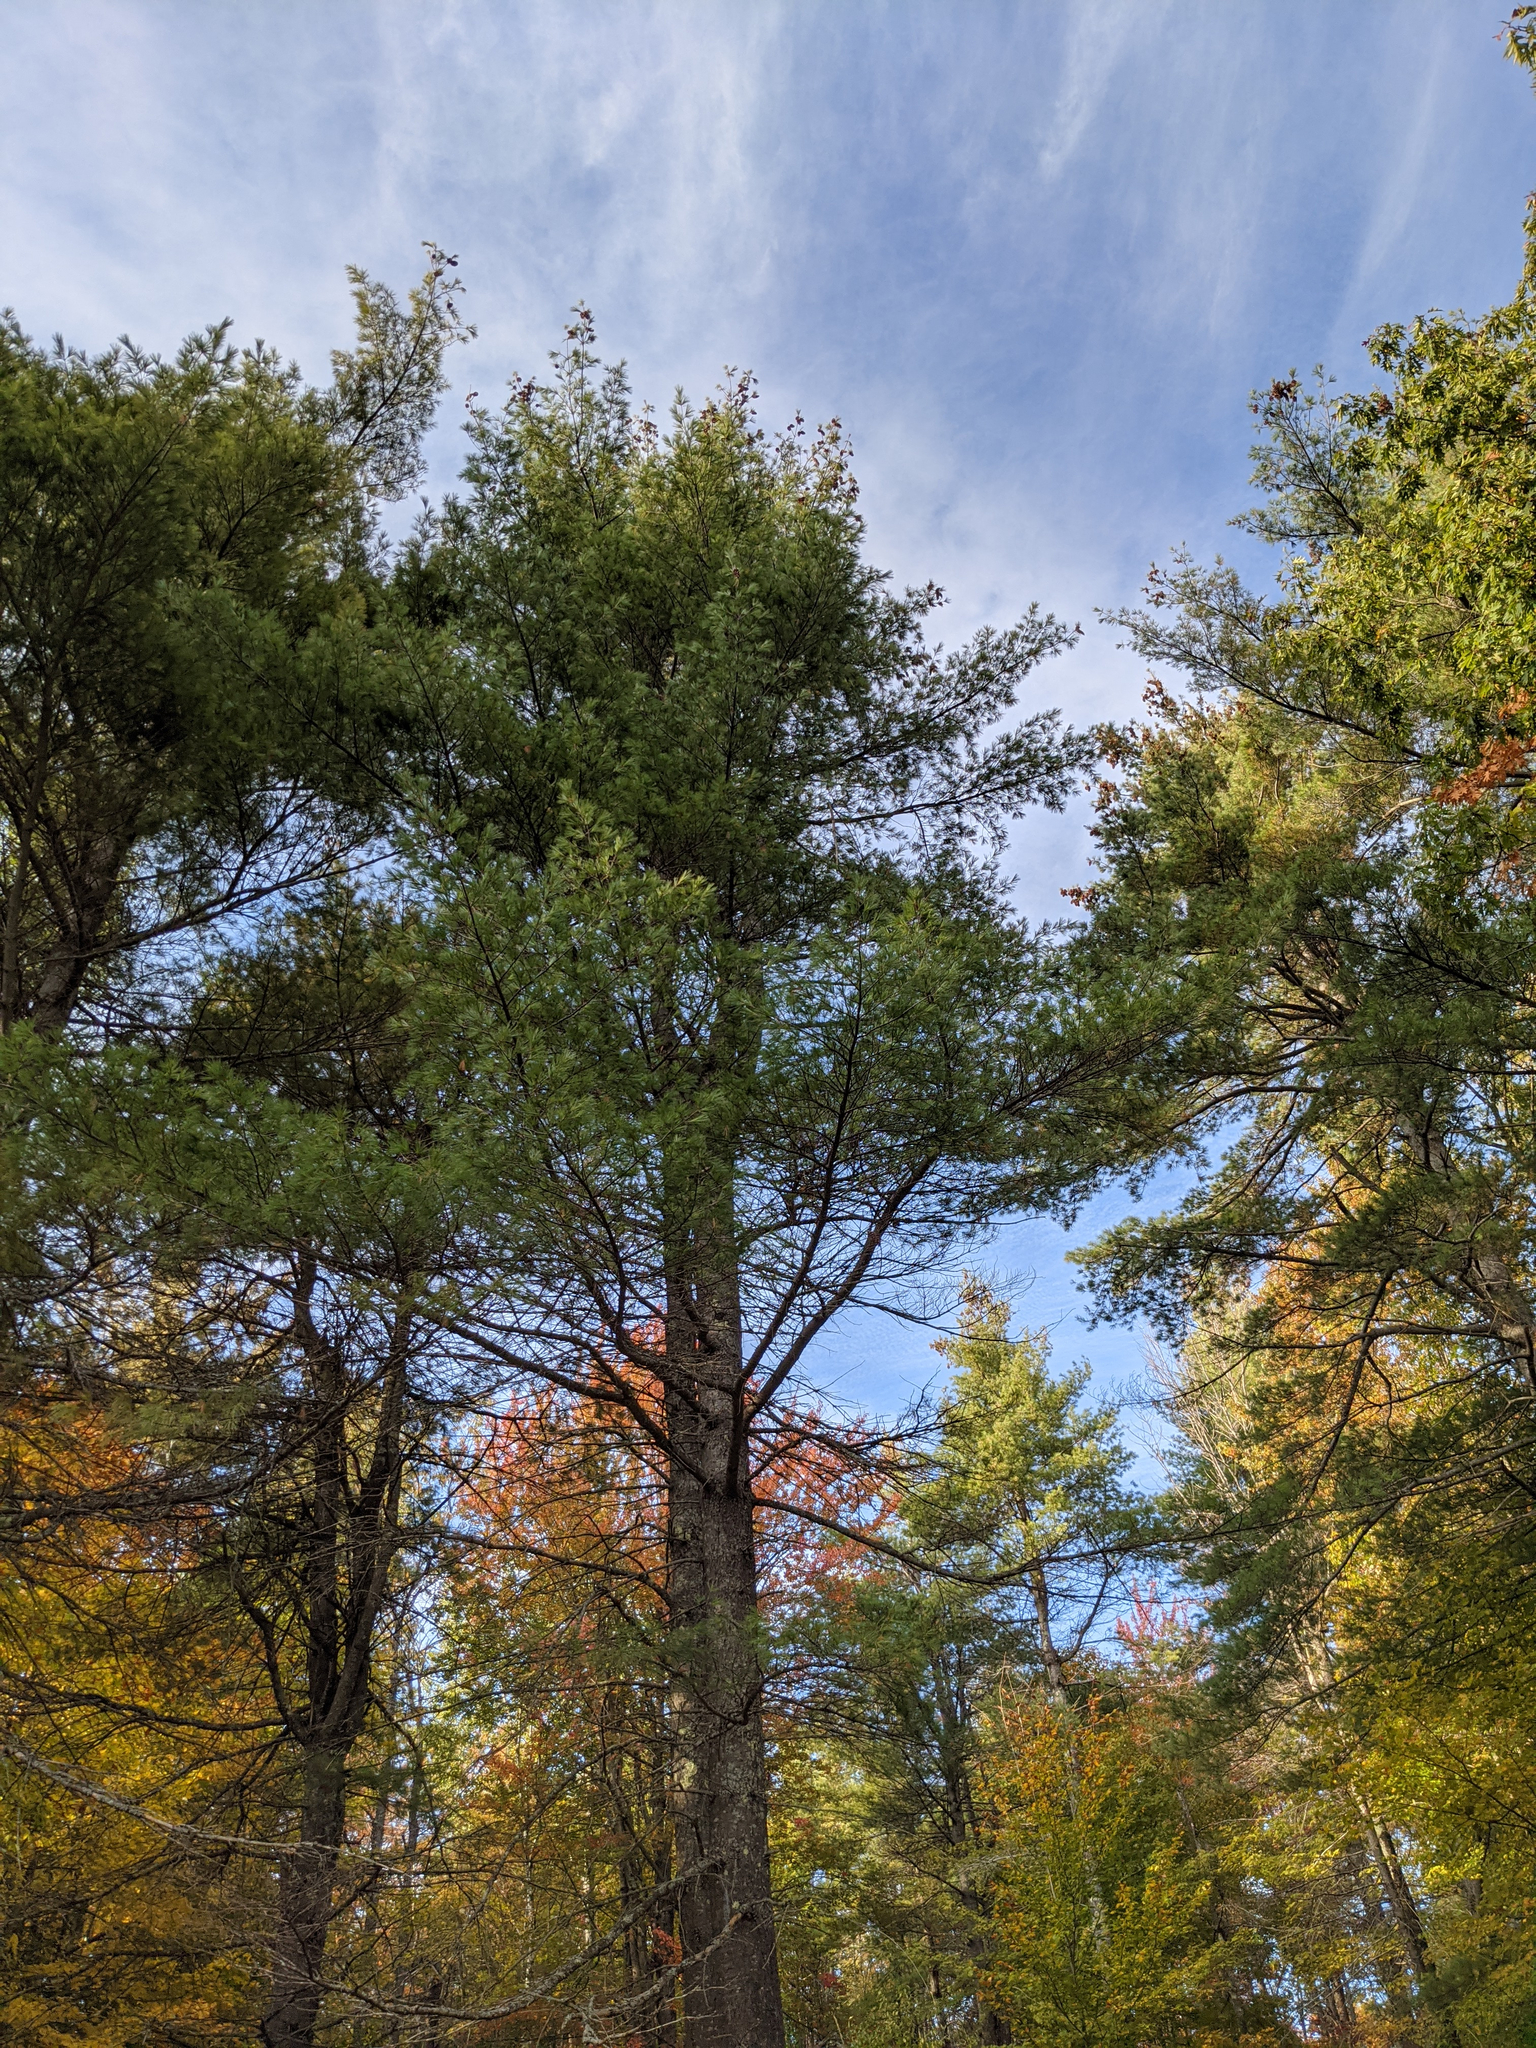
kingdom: Plantae
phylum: Tracheophyta
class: Pinopsida
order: Pinales
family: Pinaceae
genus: Pinus
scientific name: Pinus strobus
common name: Weymouth pine
